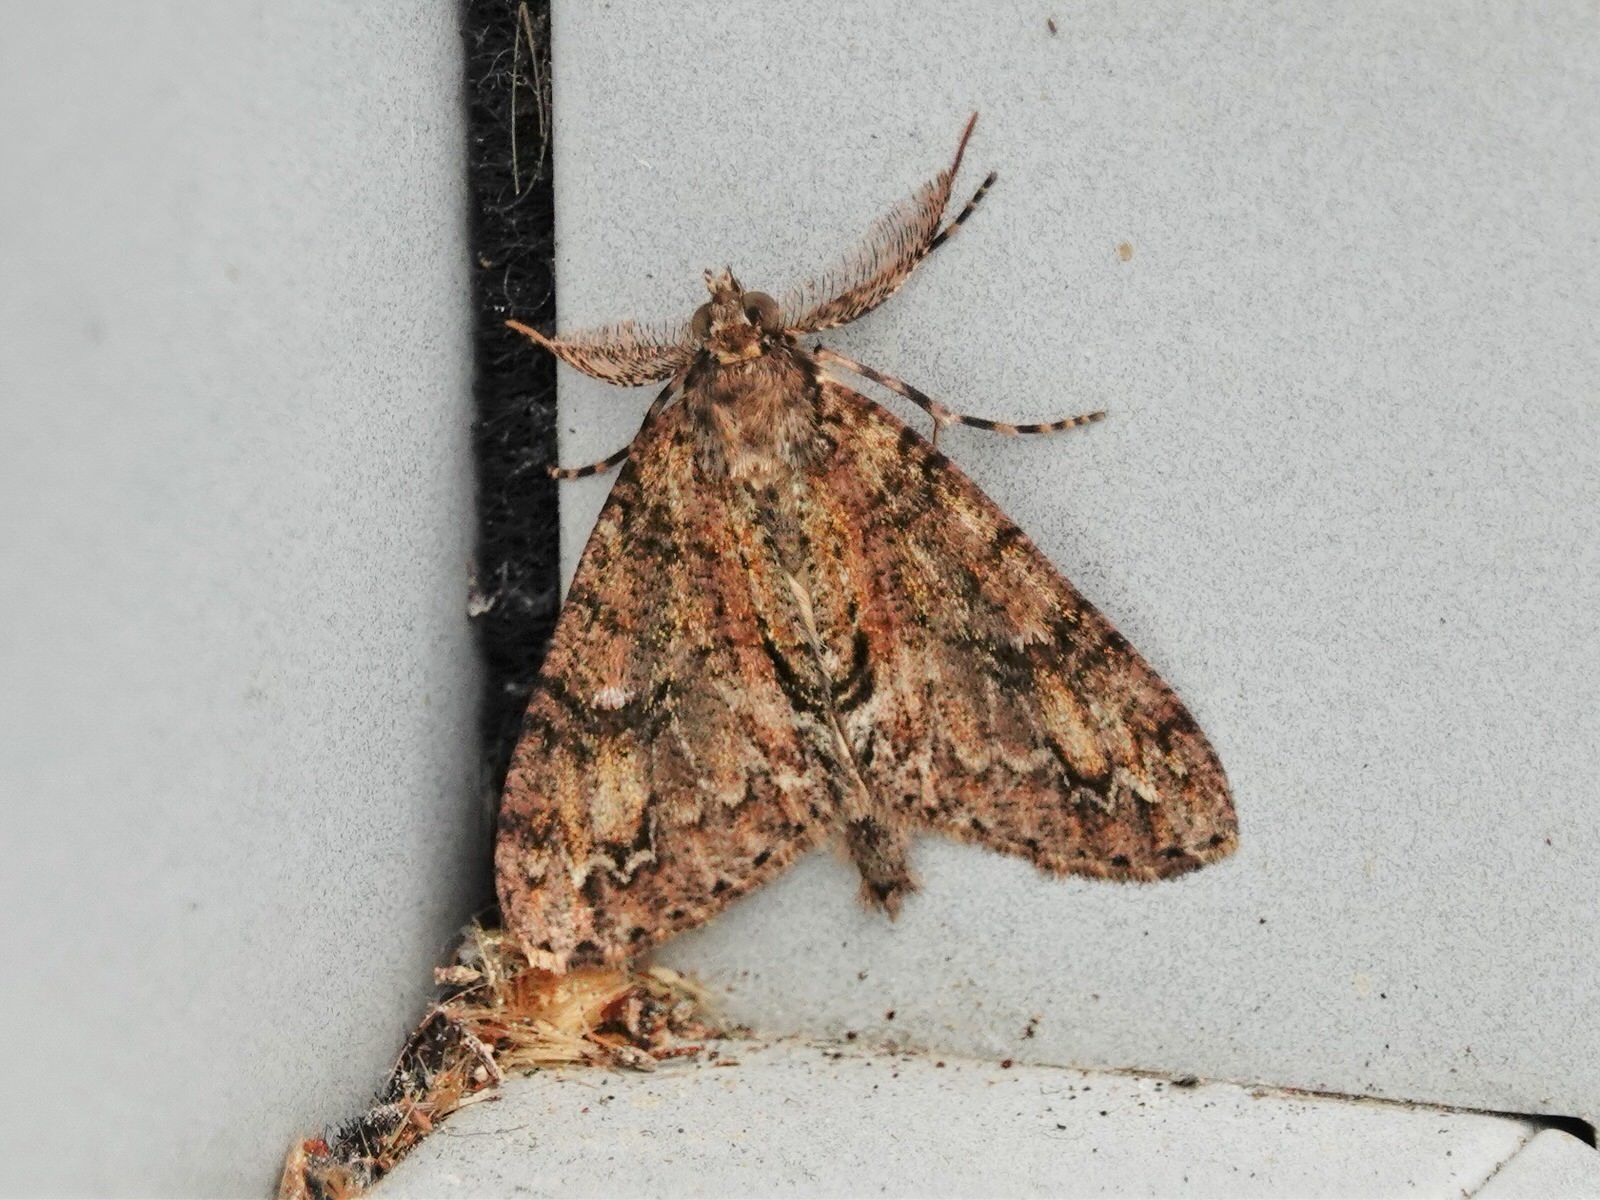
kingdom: Animalia
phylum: Arthropoda
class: Insecta
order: Lepidoptera
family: Geometridae
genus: Pseudocoremia
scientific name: Pseudocoremia suavis
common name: Common forest looper
